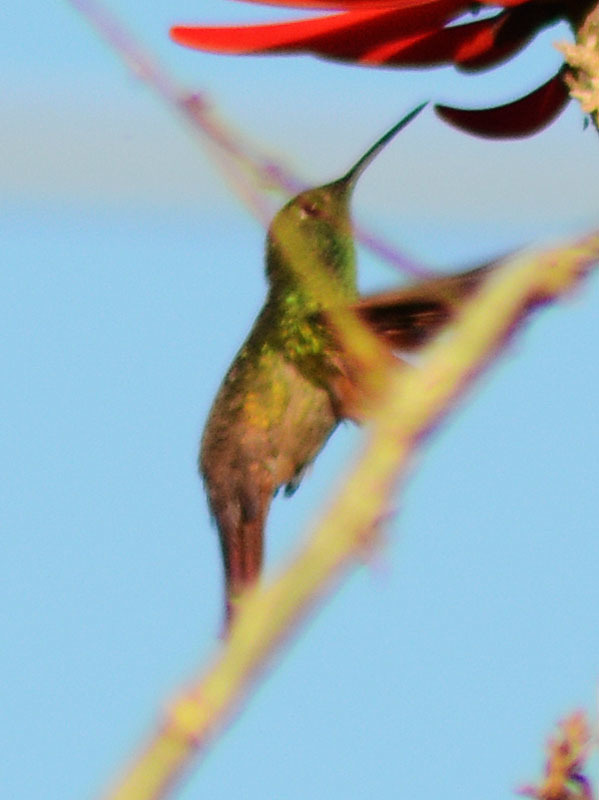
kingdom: Animalia
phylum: Chordata
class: Aves
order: Apodiformes
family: Trochilidae
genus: Saucerottia
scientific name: Saucerottia beryllina
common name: Berylline hummingbird
